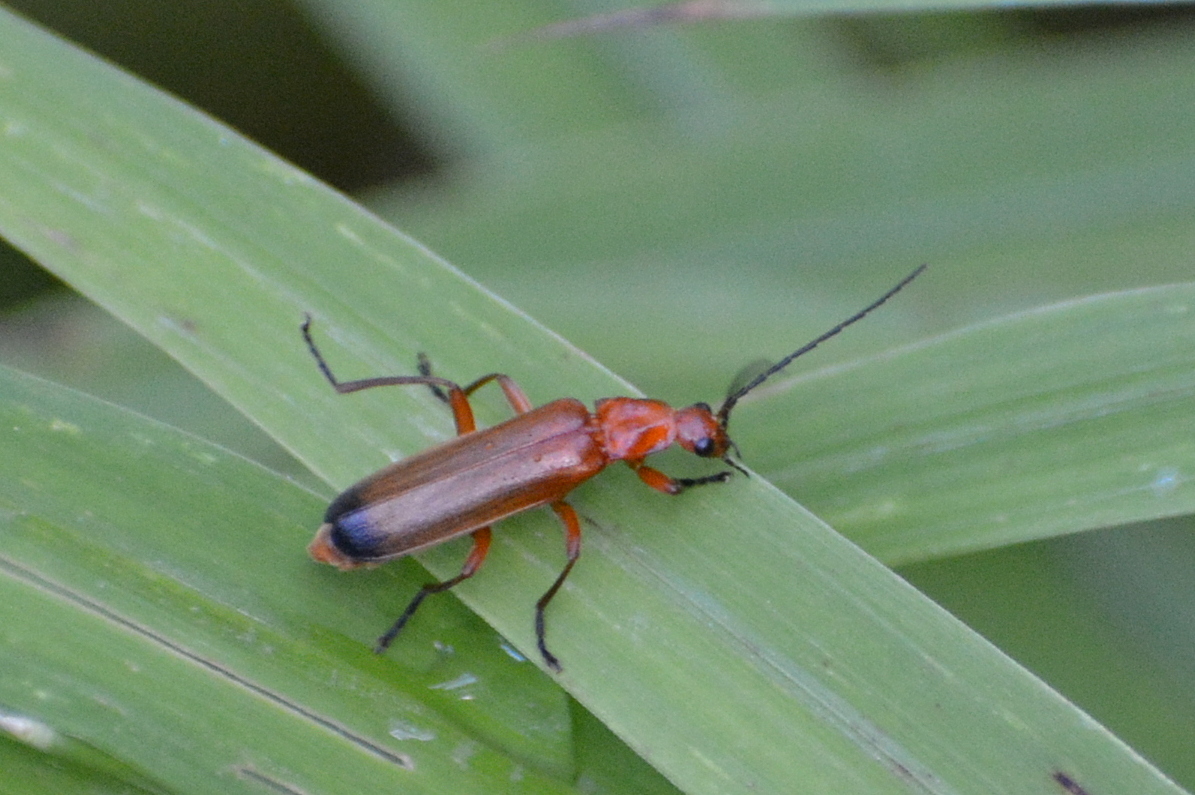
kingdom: Animalia
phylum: Arthropoda
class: Insecta
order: Coleoptera
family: Cantharidae
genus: Rhagonycha
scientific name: Rhagonycha fulva
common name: Common red soldier beetle
